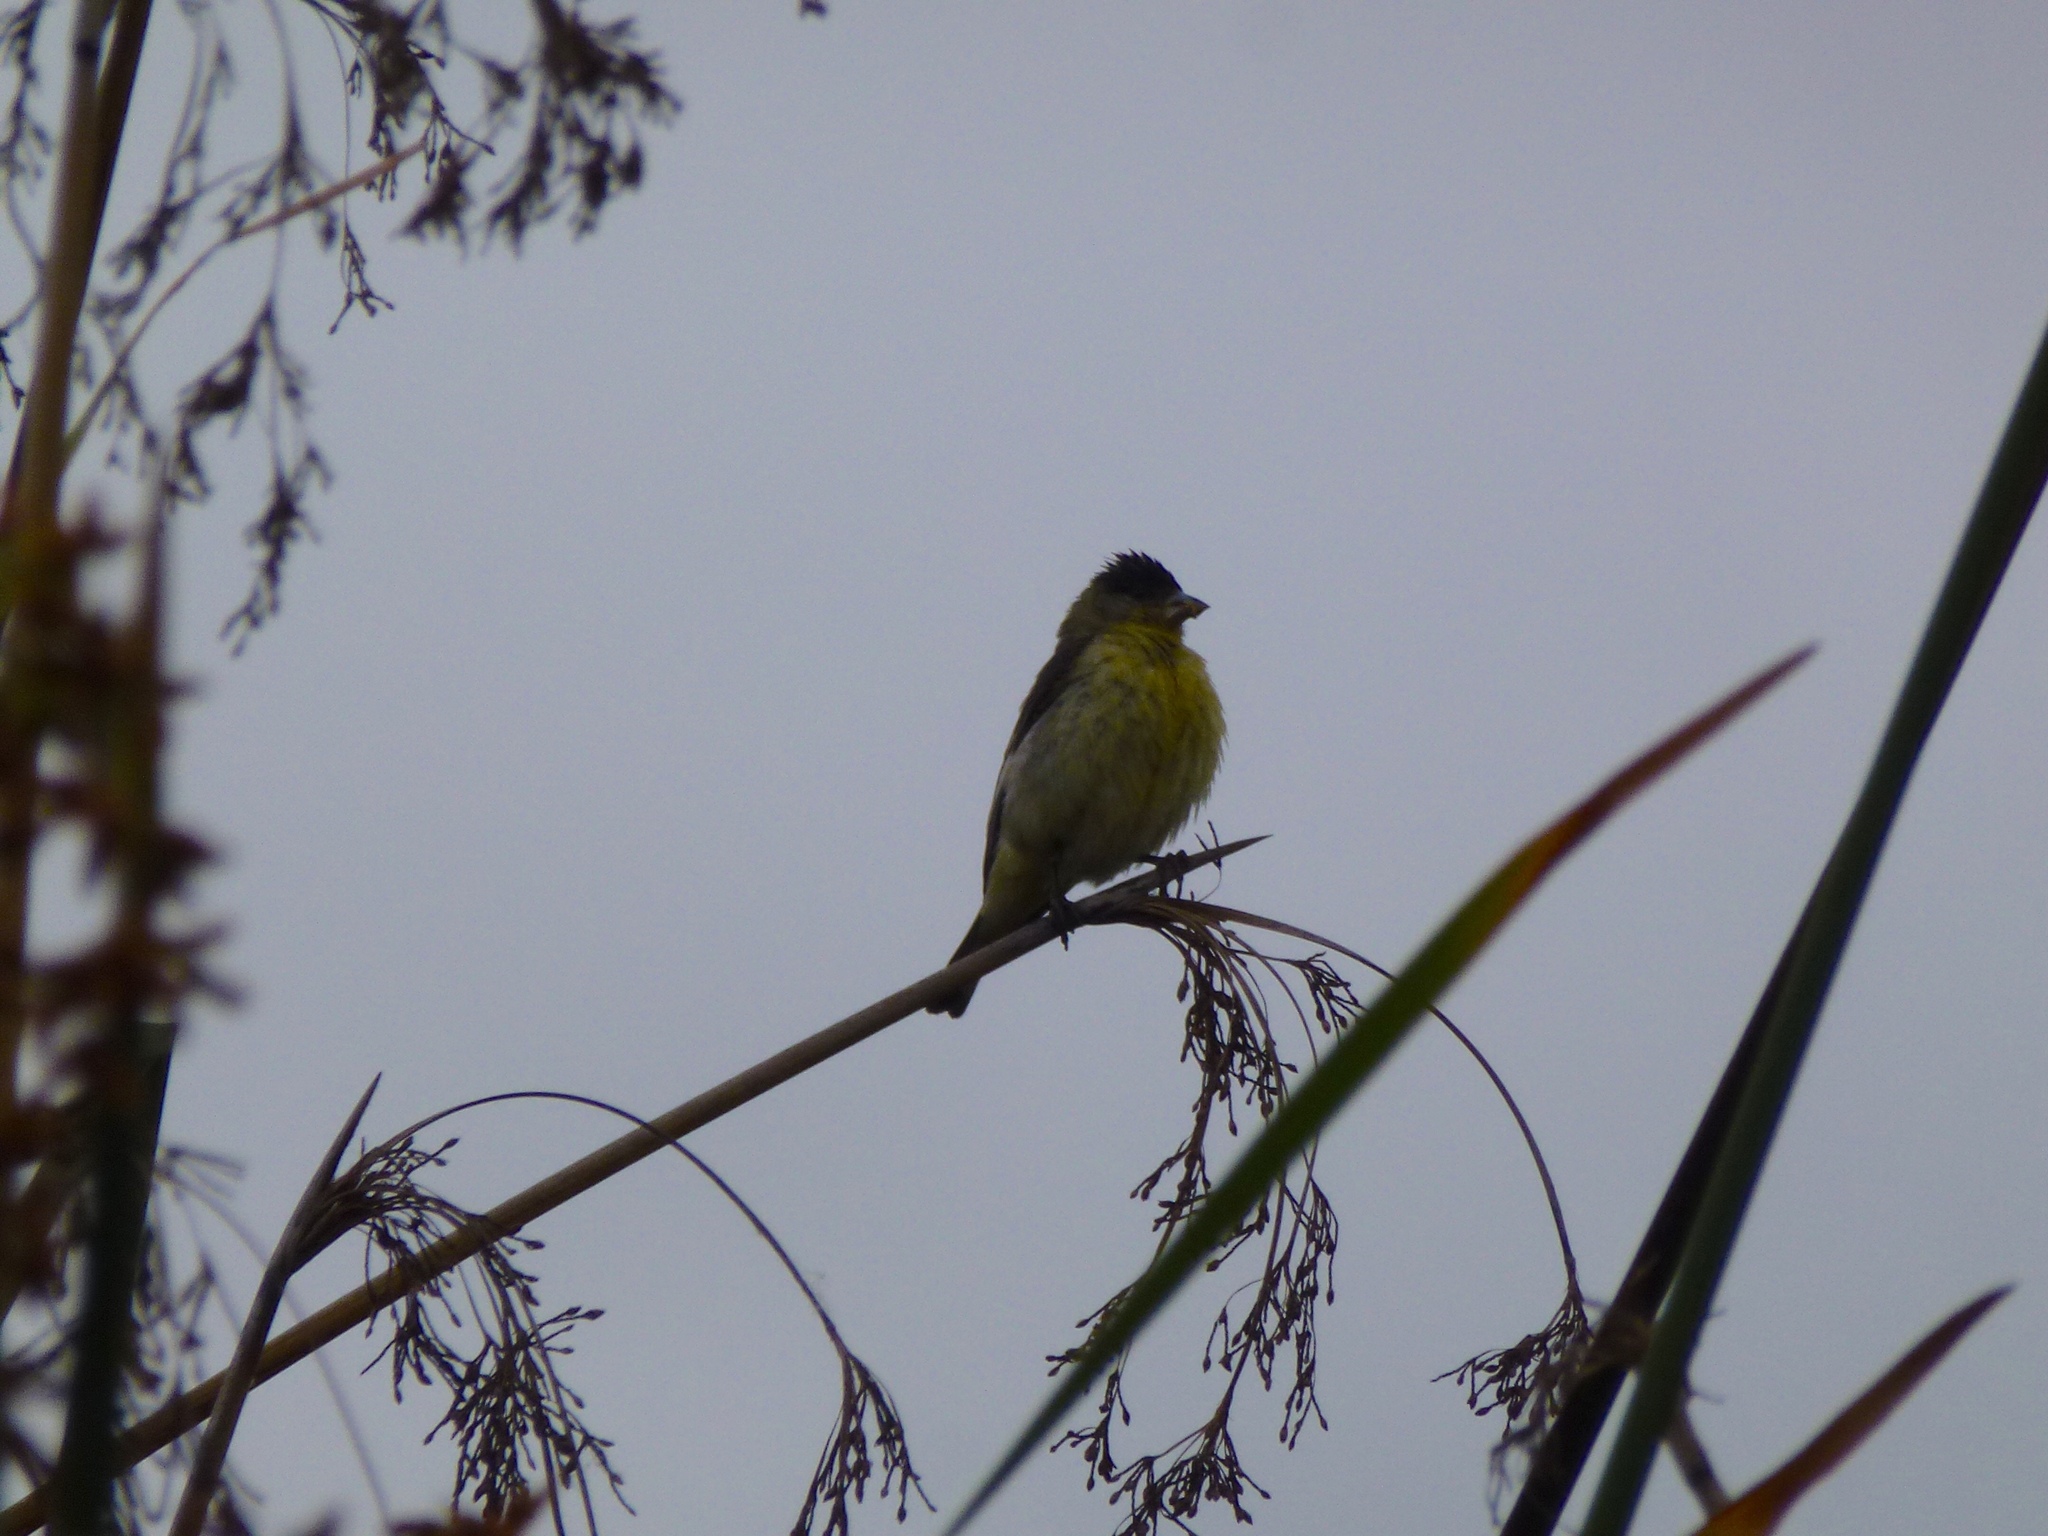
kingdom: Animalia
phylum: Chordata
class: Aves
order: Passeriformes
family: Fringillidae
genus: Spinus
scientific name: Spinus psaltria
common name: Lesser goldfinch
